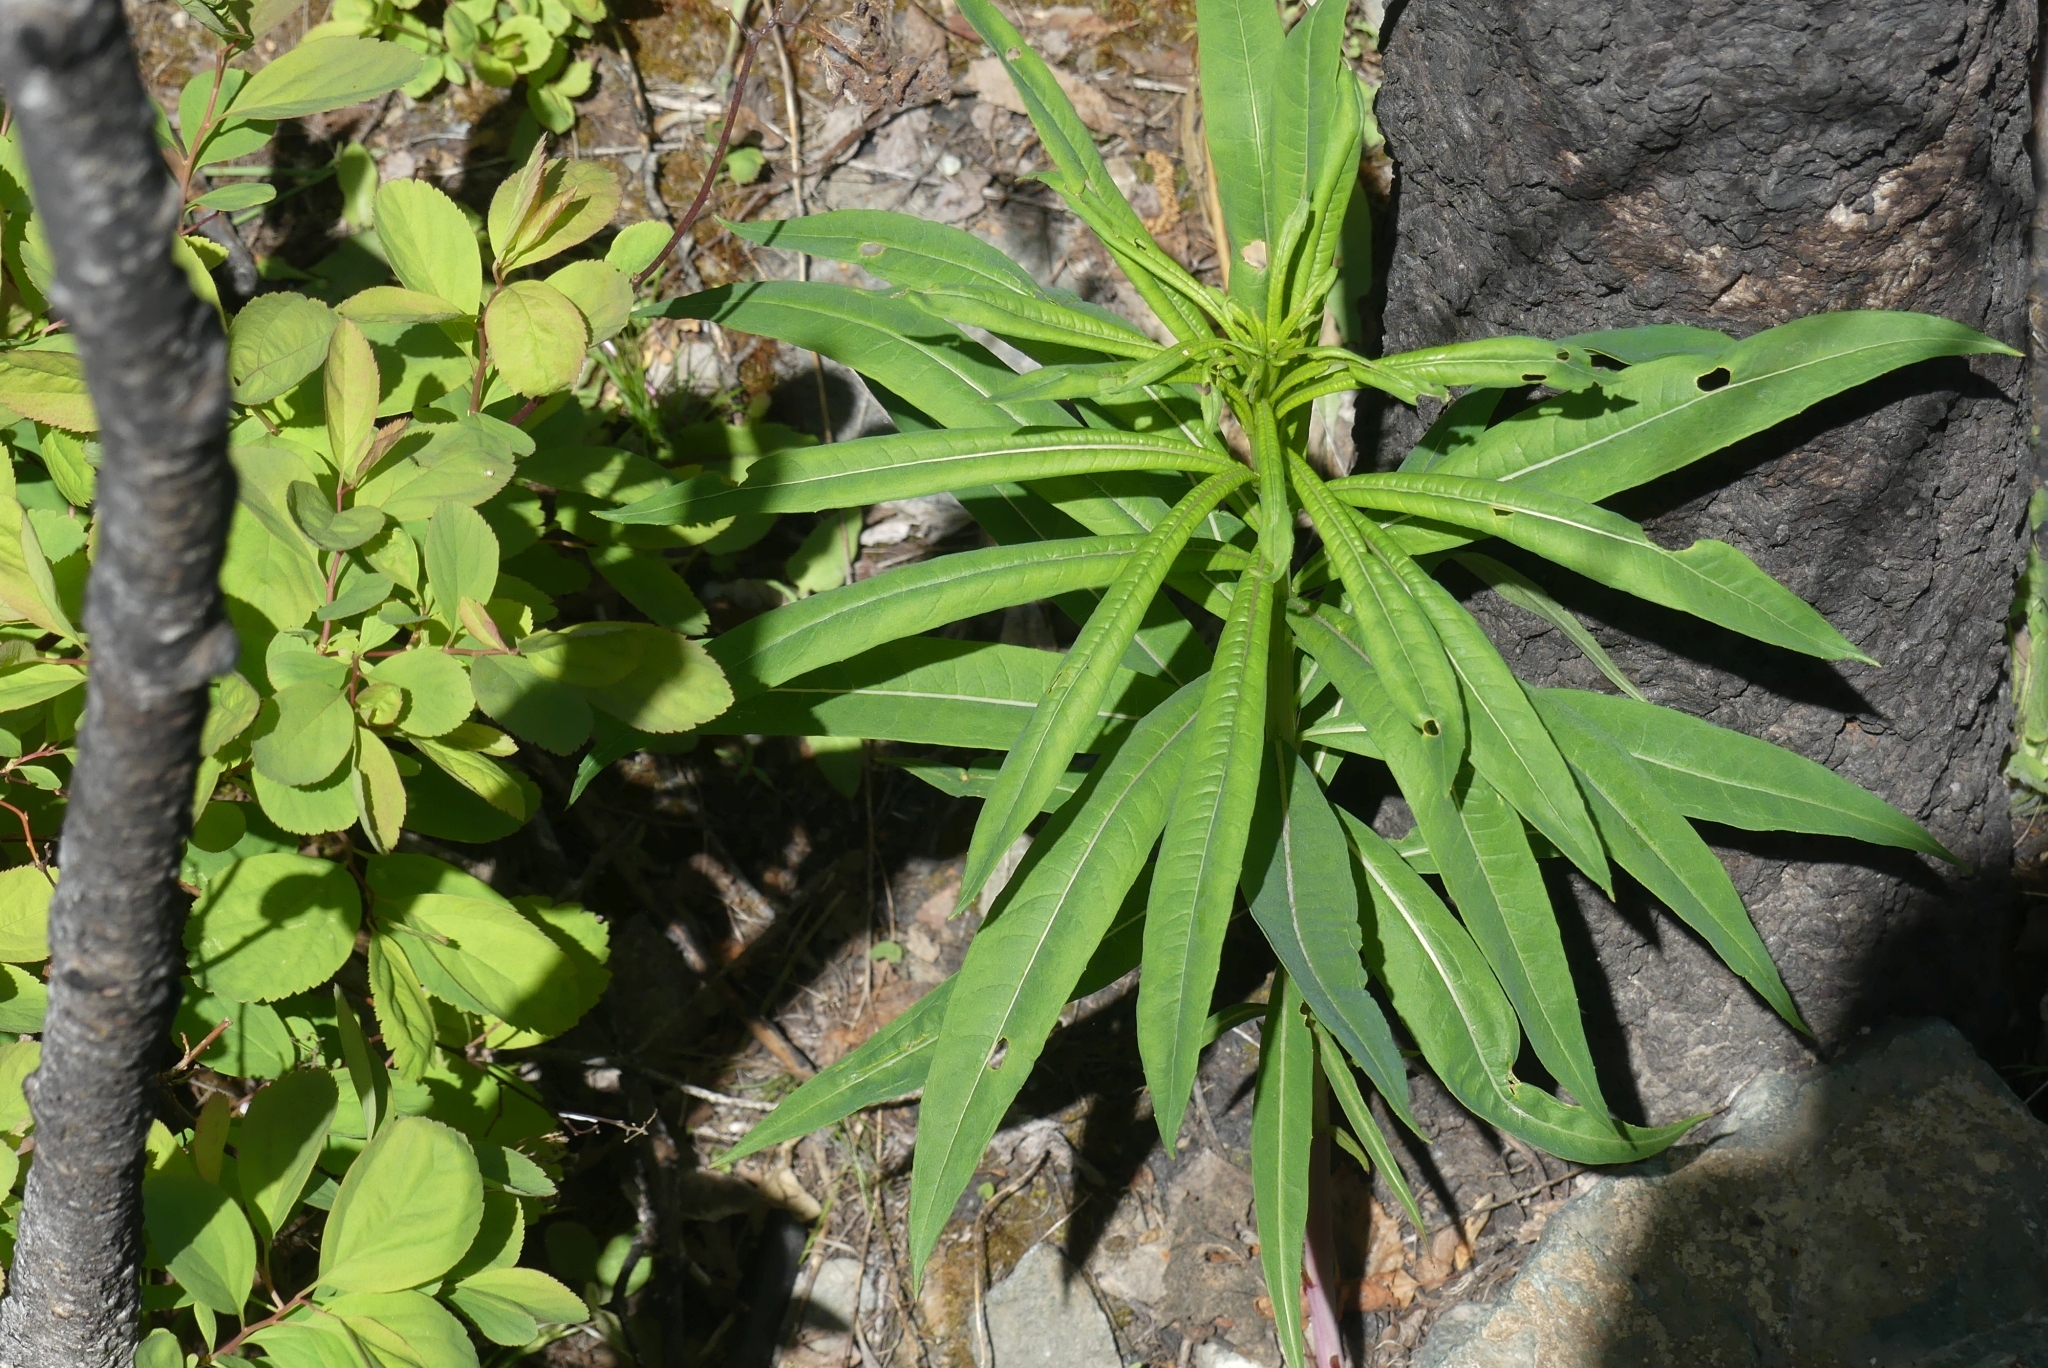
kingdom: Plantae
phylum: Tracheophyta
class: Magnoliopsida
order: Myrtales
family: Onagraceae
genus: Chamaenerion
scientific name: Chamaenerion angustifolium
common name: Fireweed
